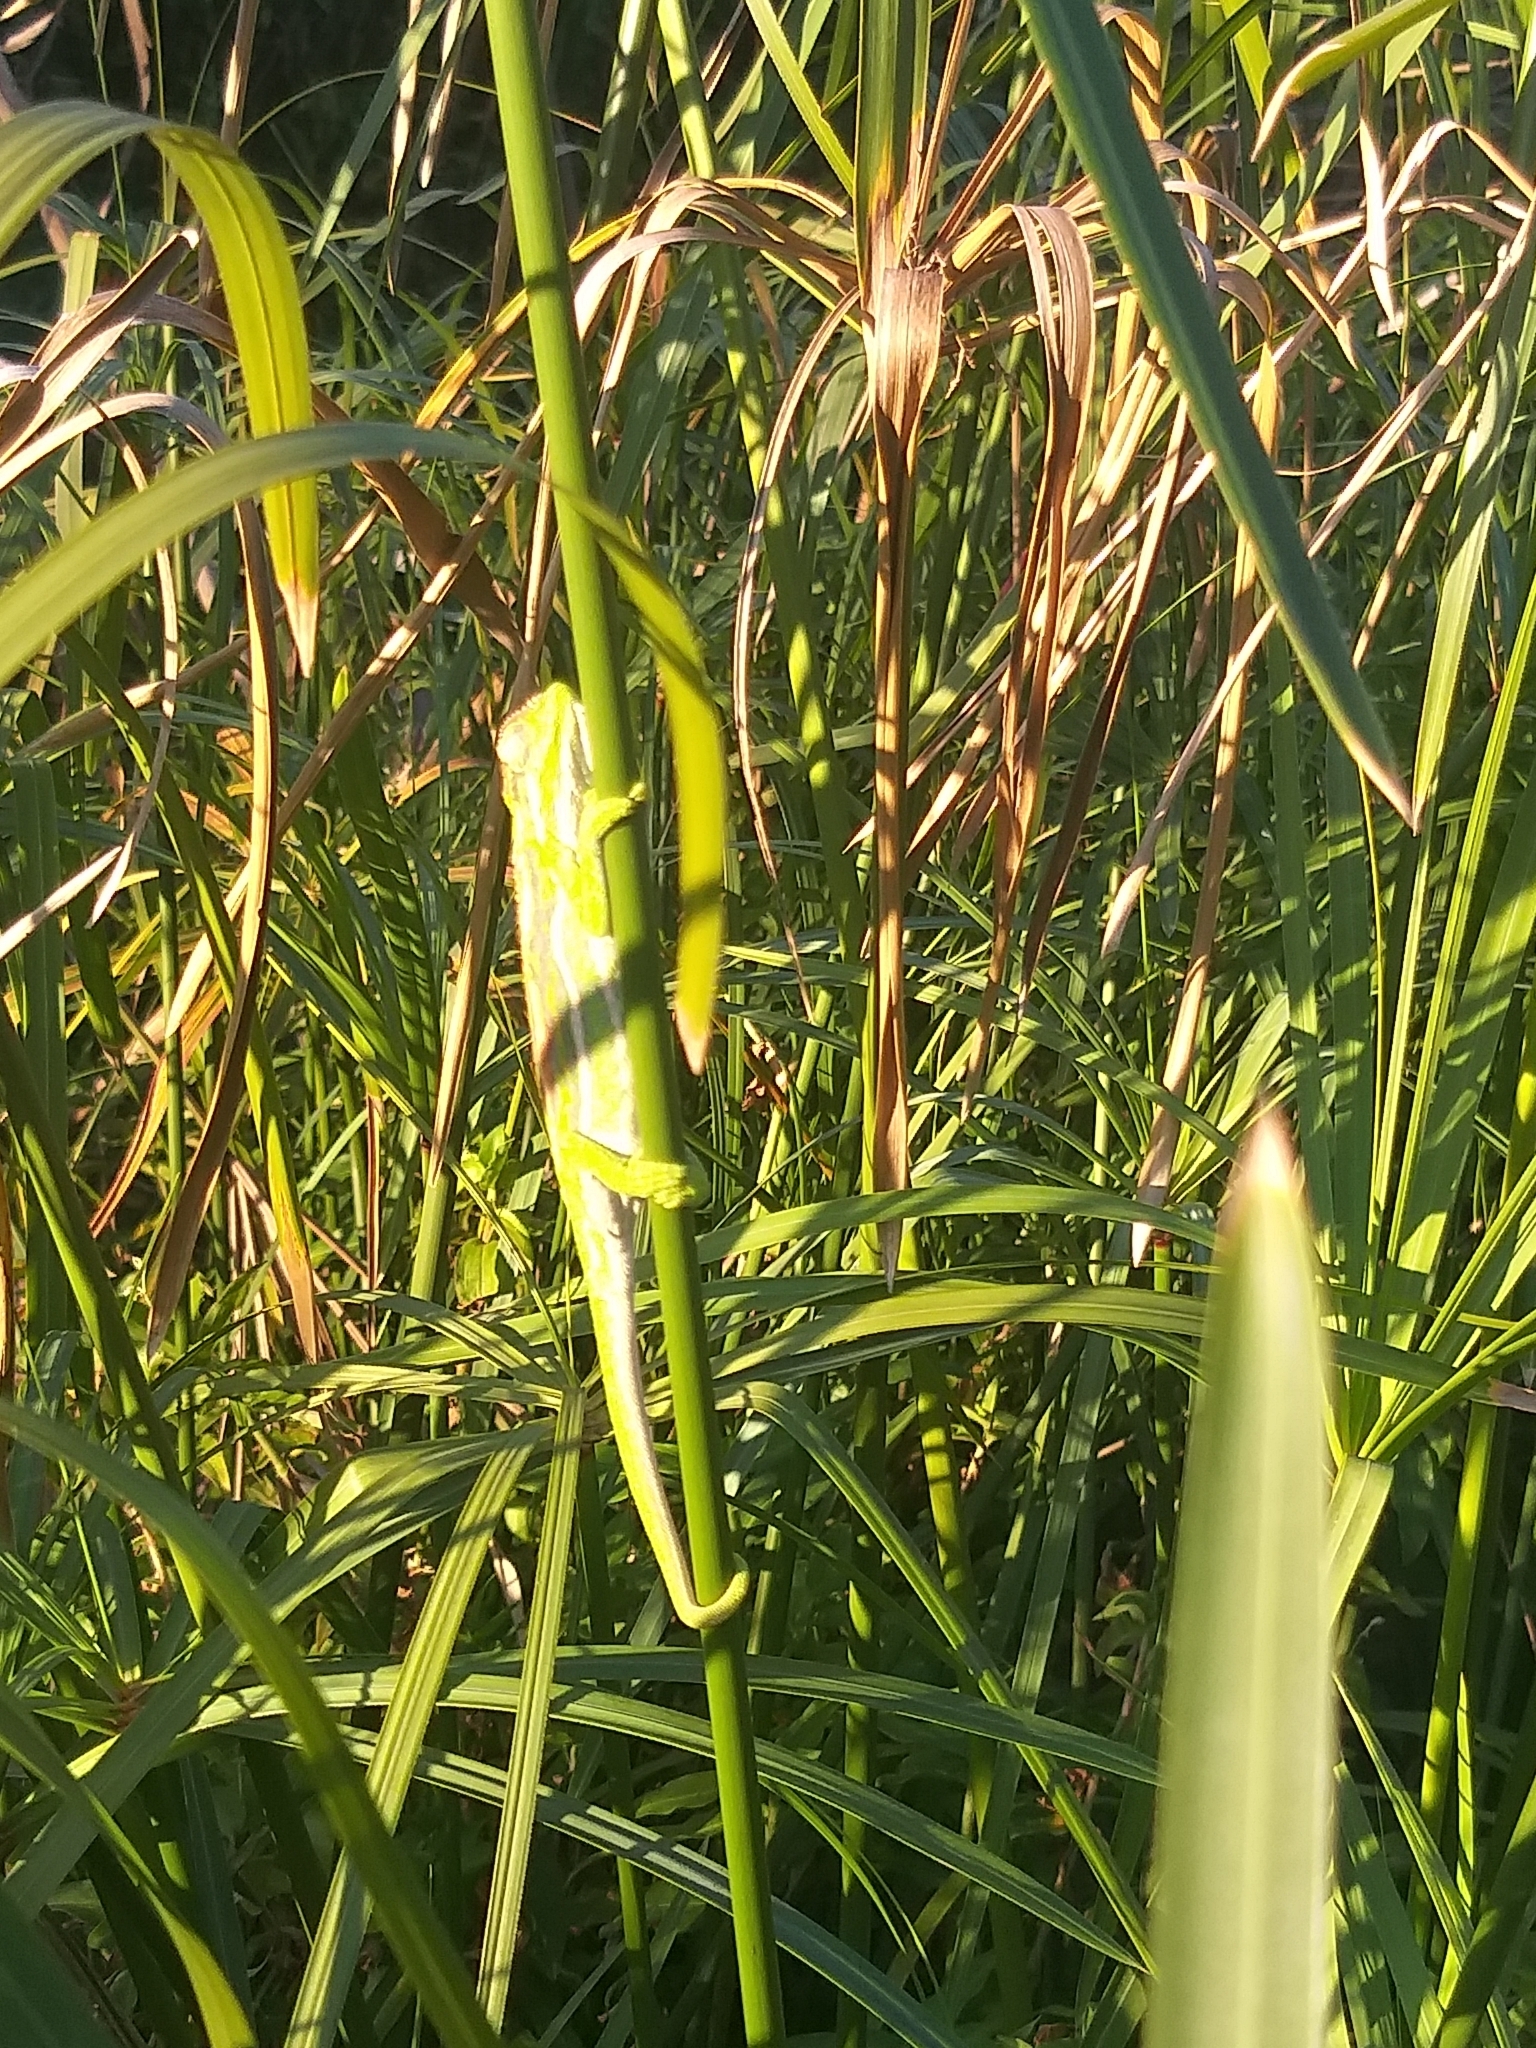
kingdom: Animalia
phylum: Chordata
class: Squamata
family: Chamaeleonidae
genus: Bradypodion
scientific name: Bradypodion pumilum
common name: Cape dwarf chameleon
